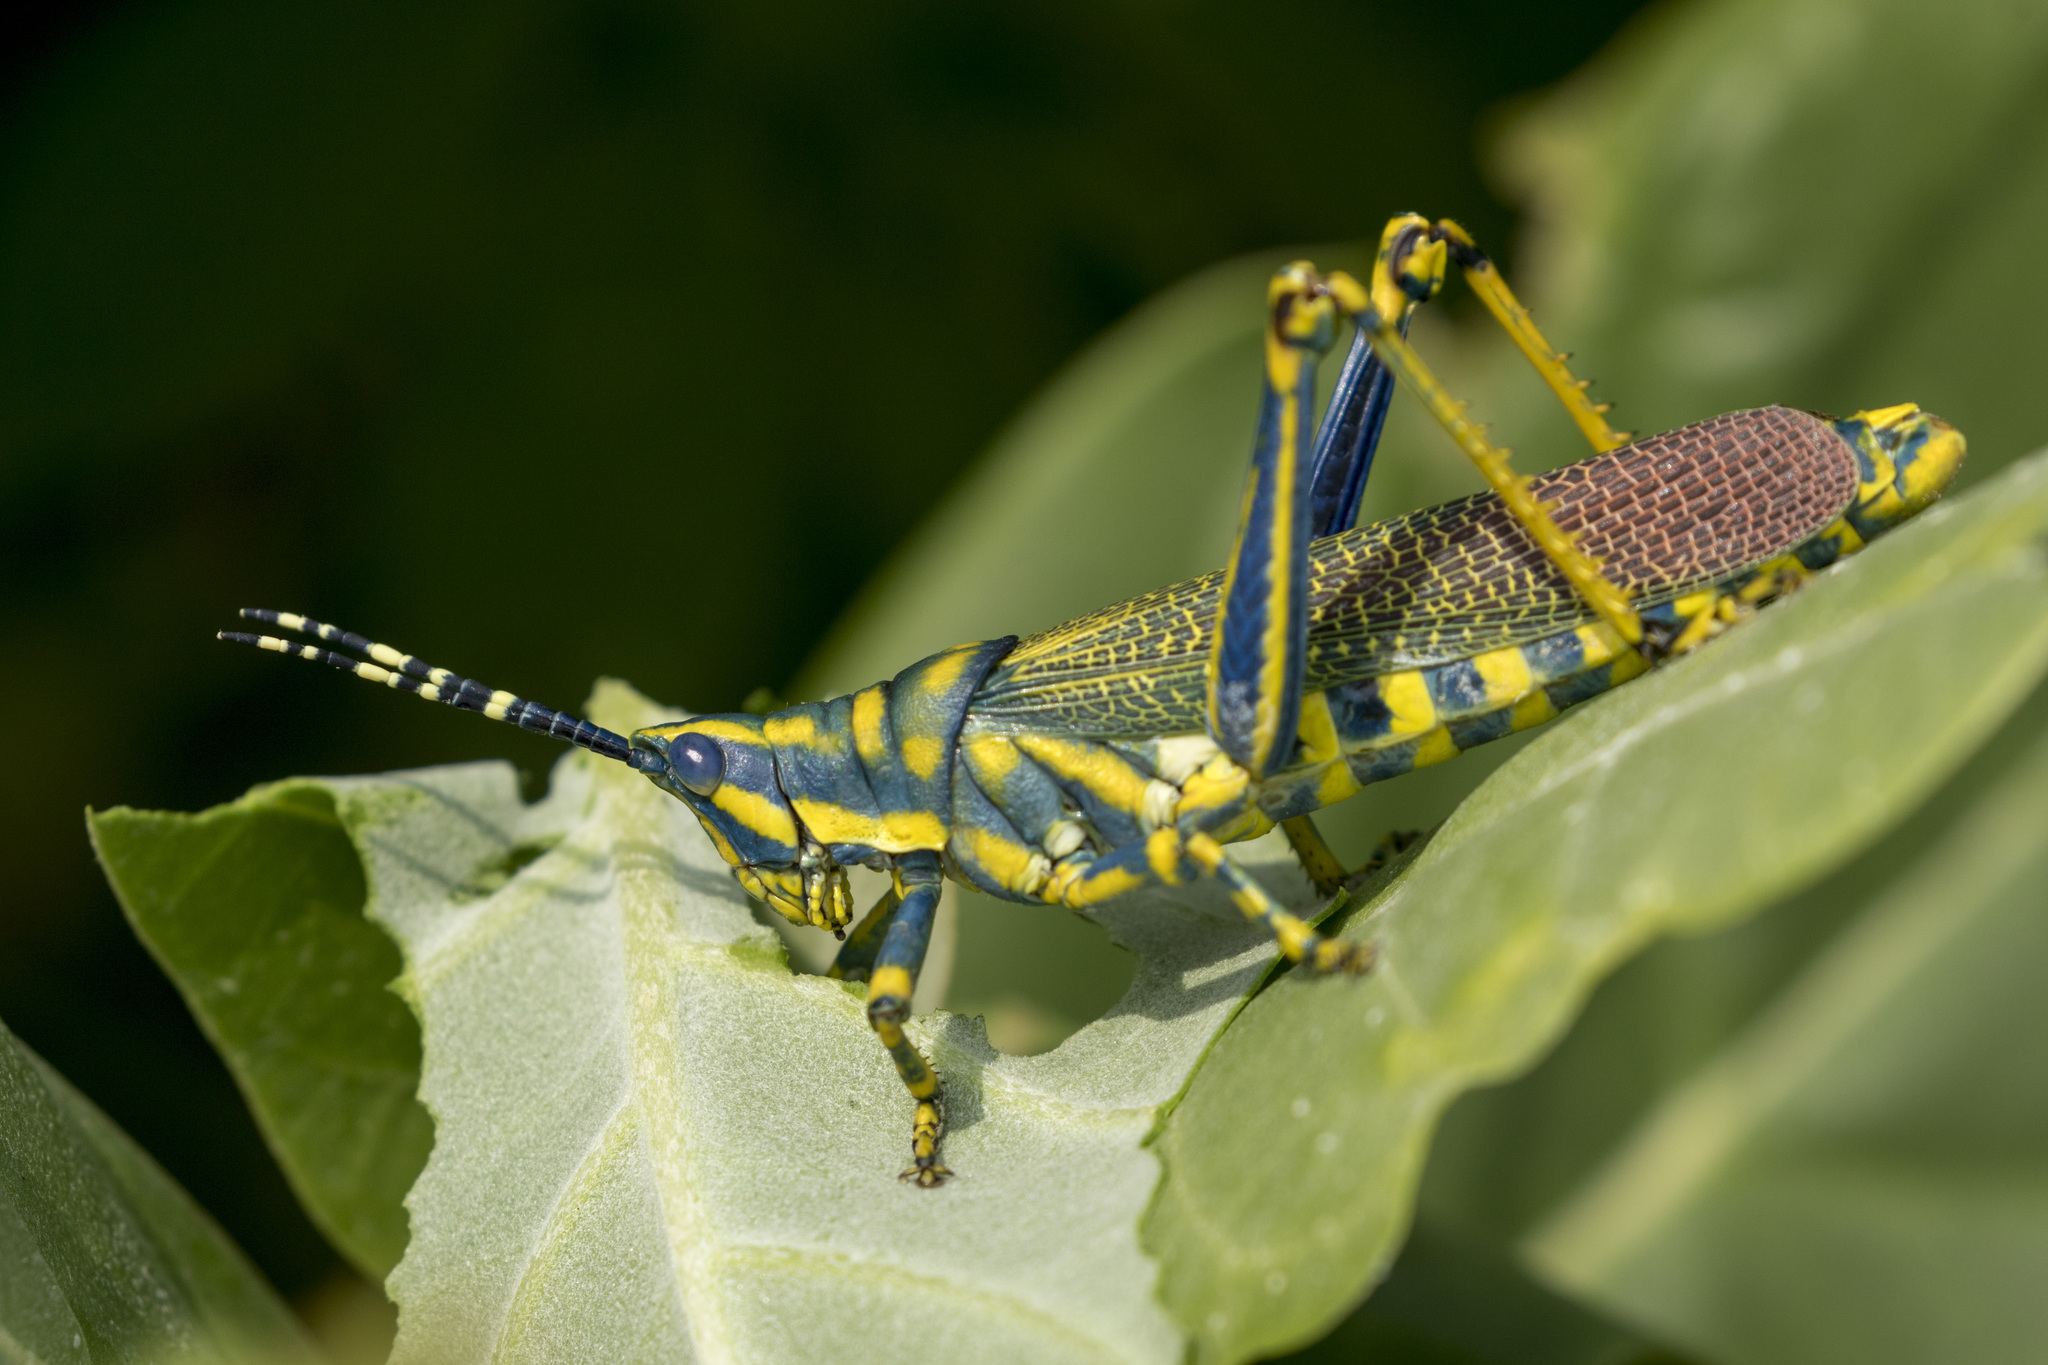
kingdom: Animalia
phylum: Arthropoda
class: Insecta
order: Orthoptera
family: Pyrgomorphidae
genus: Poekilocerus
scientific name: Poekilocerus pictus
